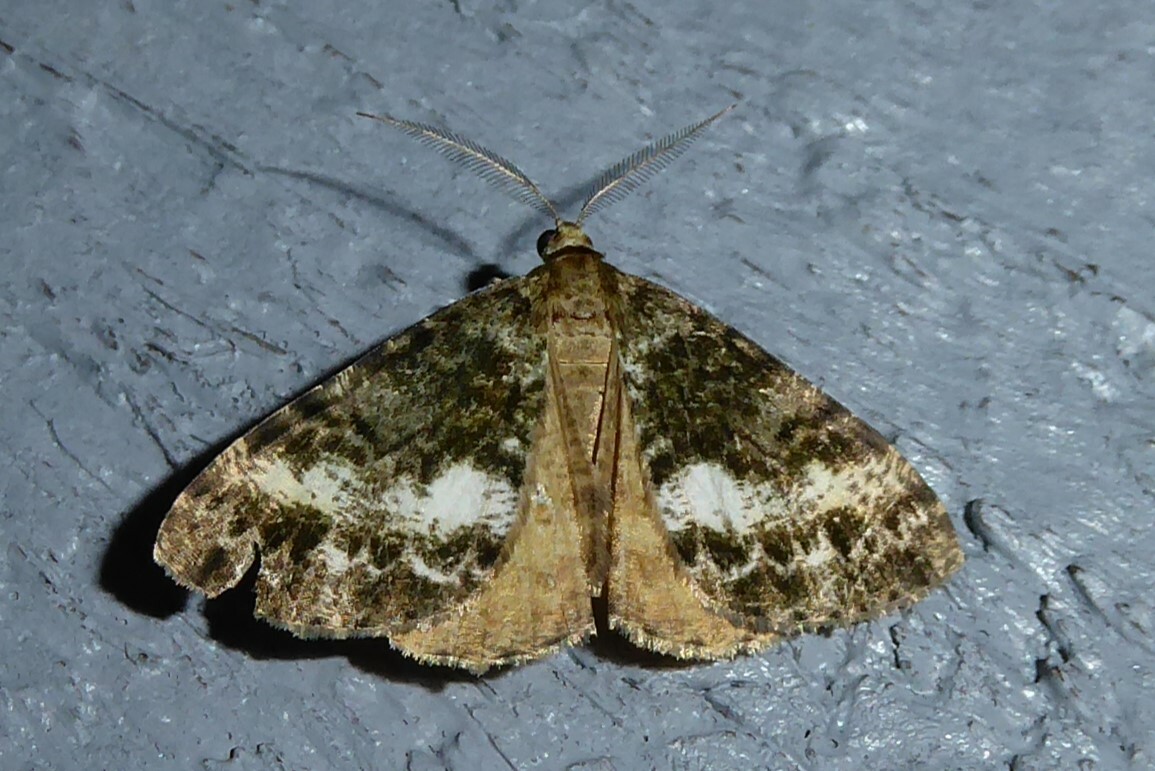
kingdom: Animalia
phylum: Arthropoda
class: Insecta
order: Lepidoptera
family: Geometridae
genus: Pseudocoremia
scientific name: Pseudocoremia lactiflua
